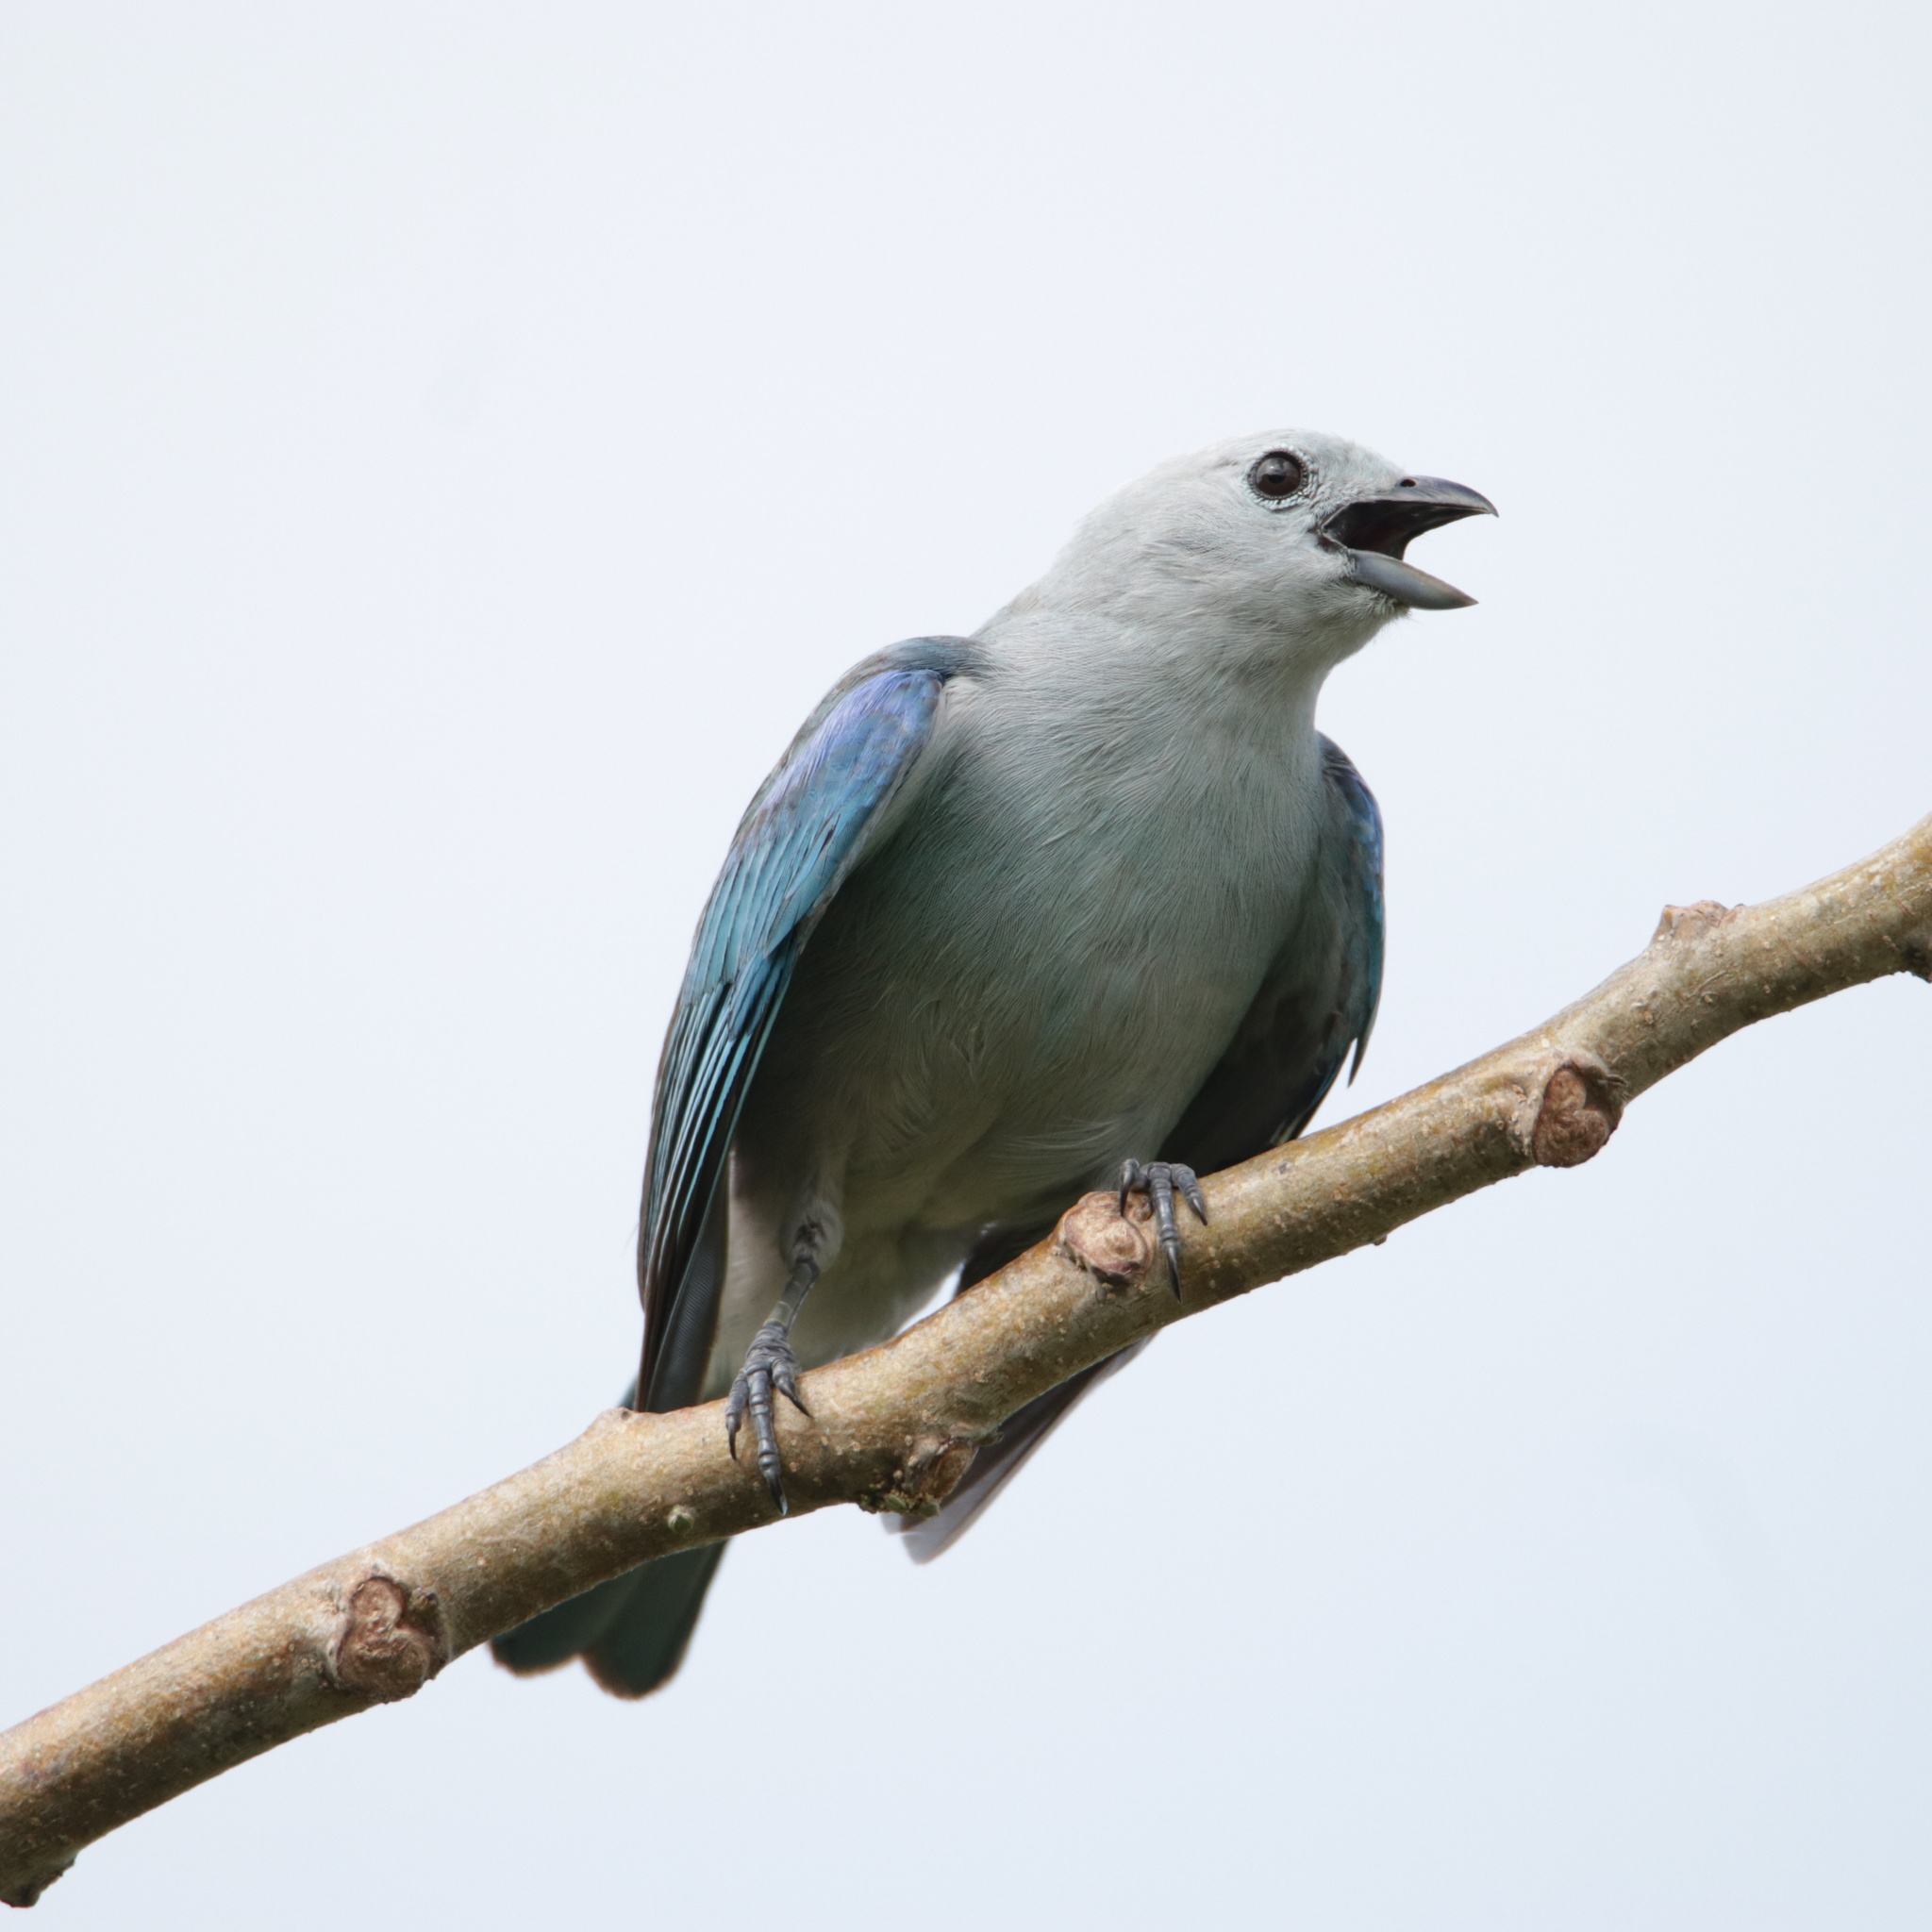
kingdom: Animalia
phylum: Chordata
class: Aves
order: Passeriformes
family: Thraupidae
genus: Thraupis
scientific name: Thraupis episcopus
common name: Blue-grey tanager
